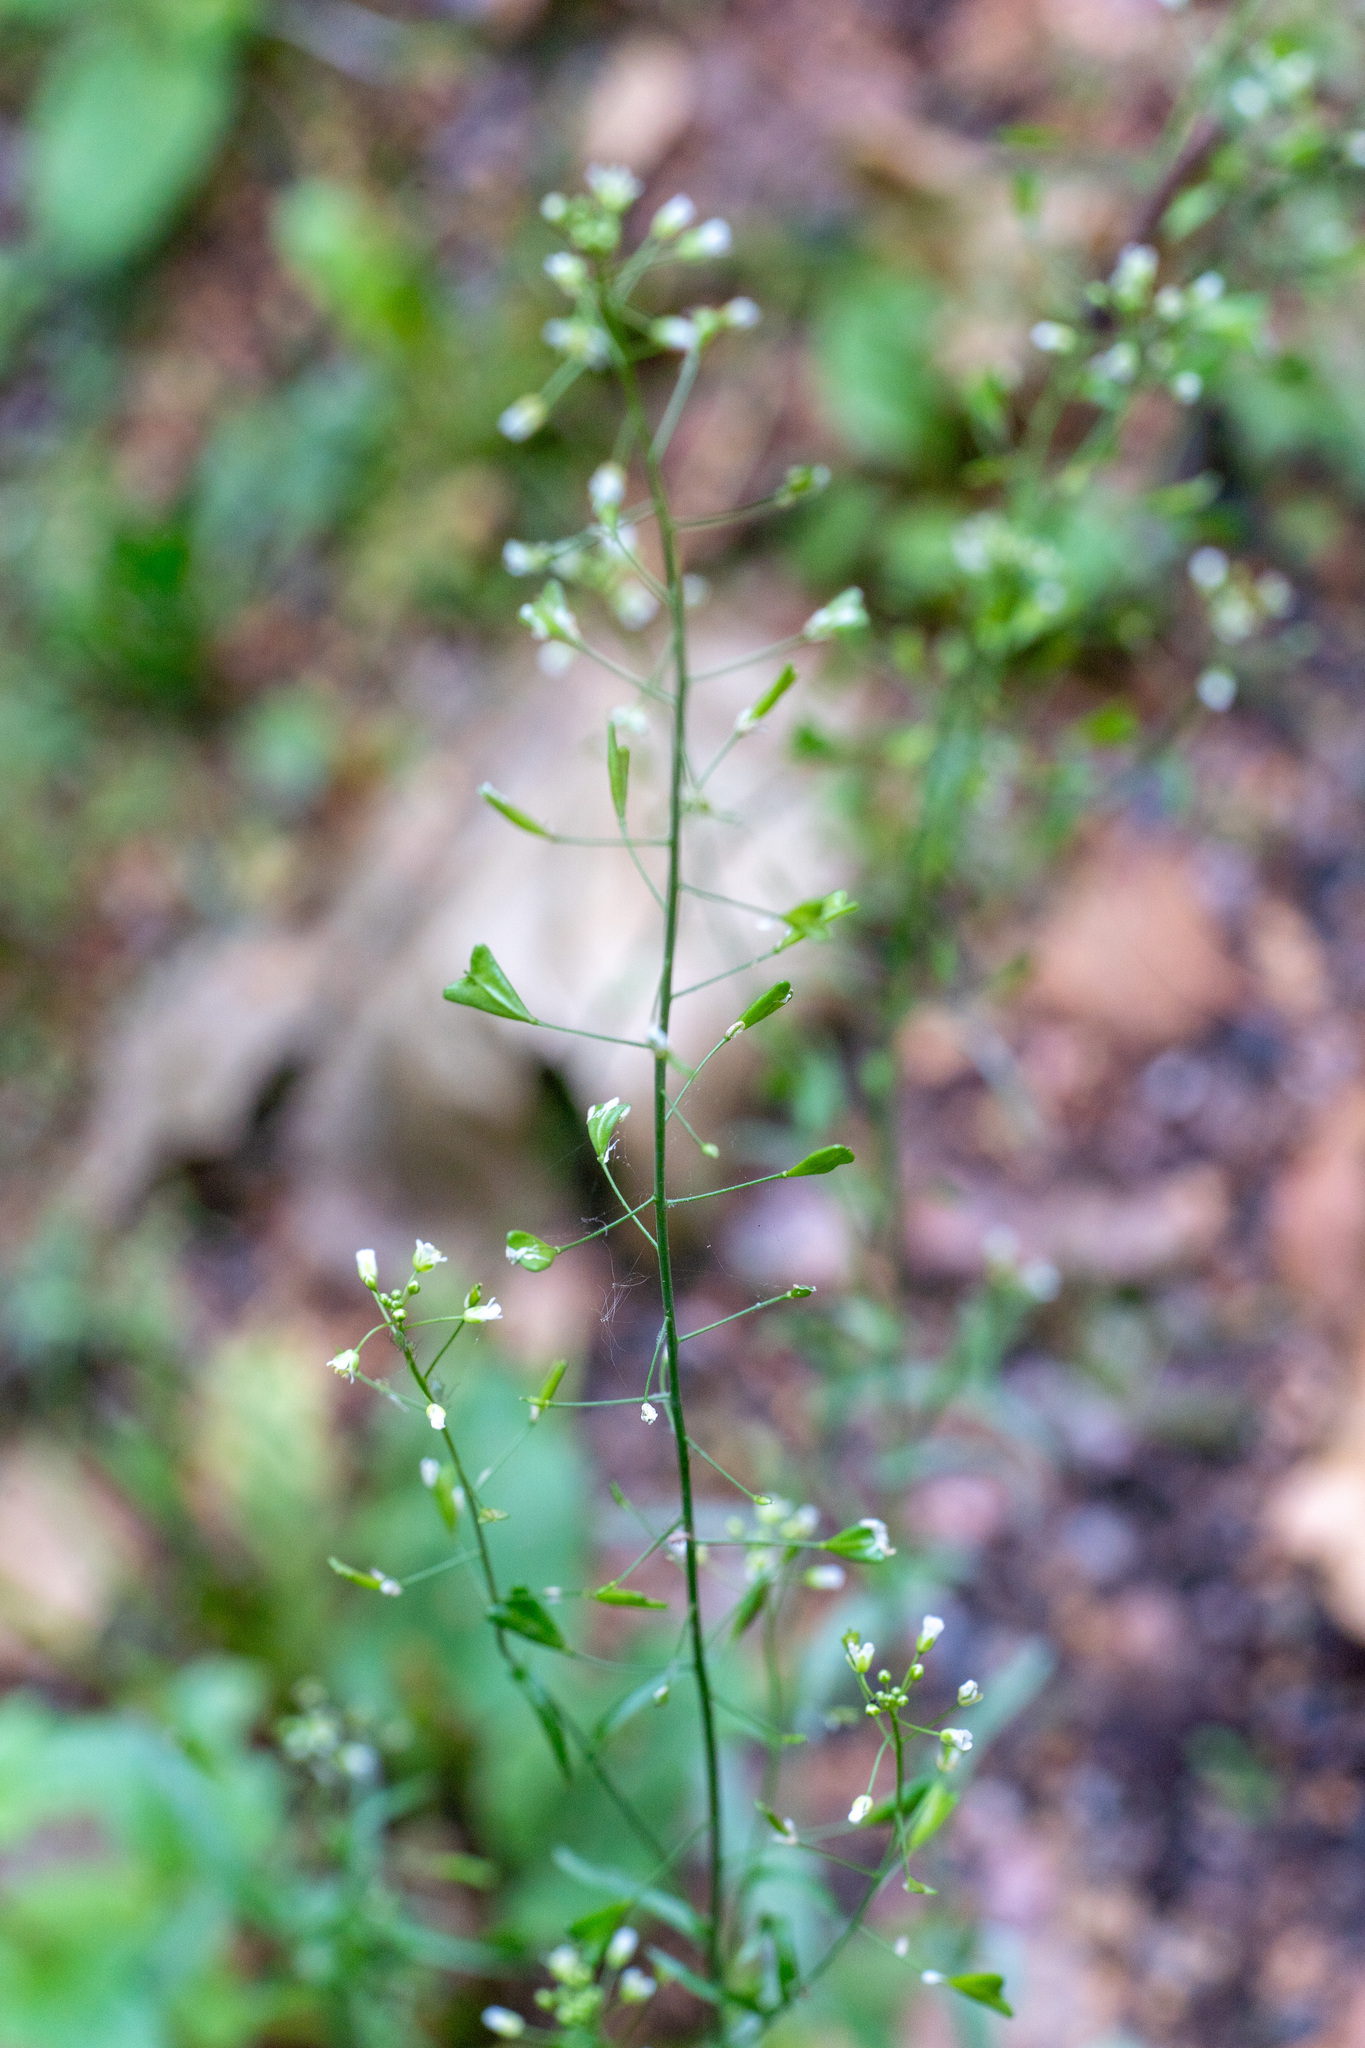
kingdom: Plantae
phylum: Tracheophyta
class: Magnoliopsida
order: Brassicales
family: Brassicaceae
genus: Capsella
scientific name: Capsella bursa-pastoris
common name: Shepherd's purse
